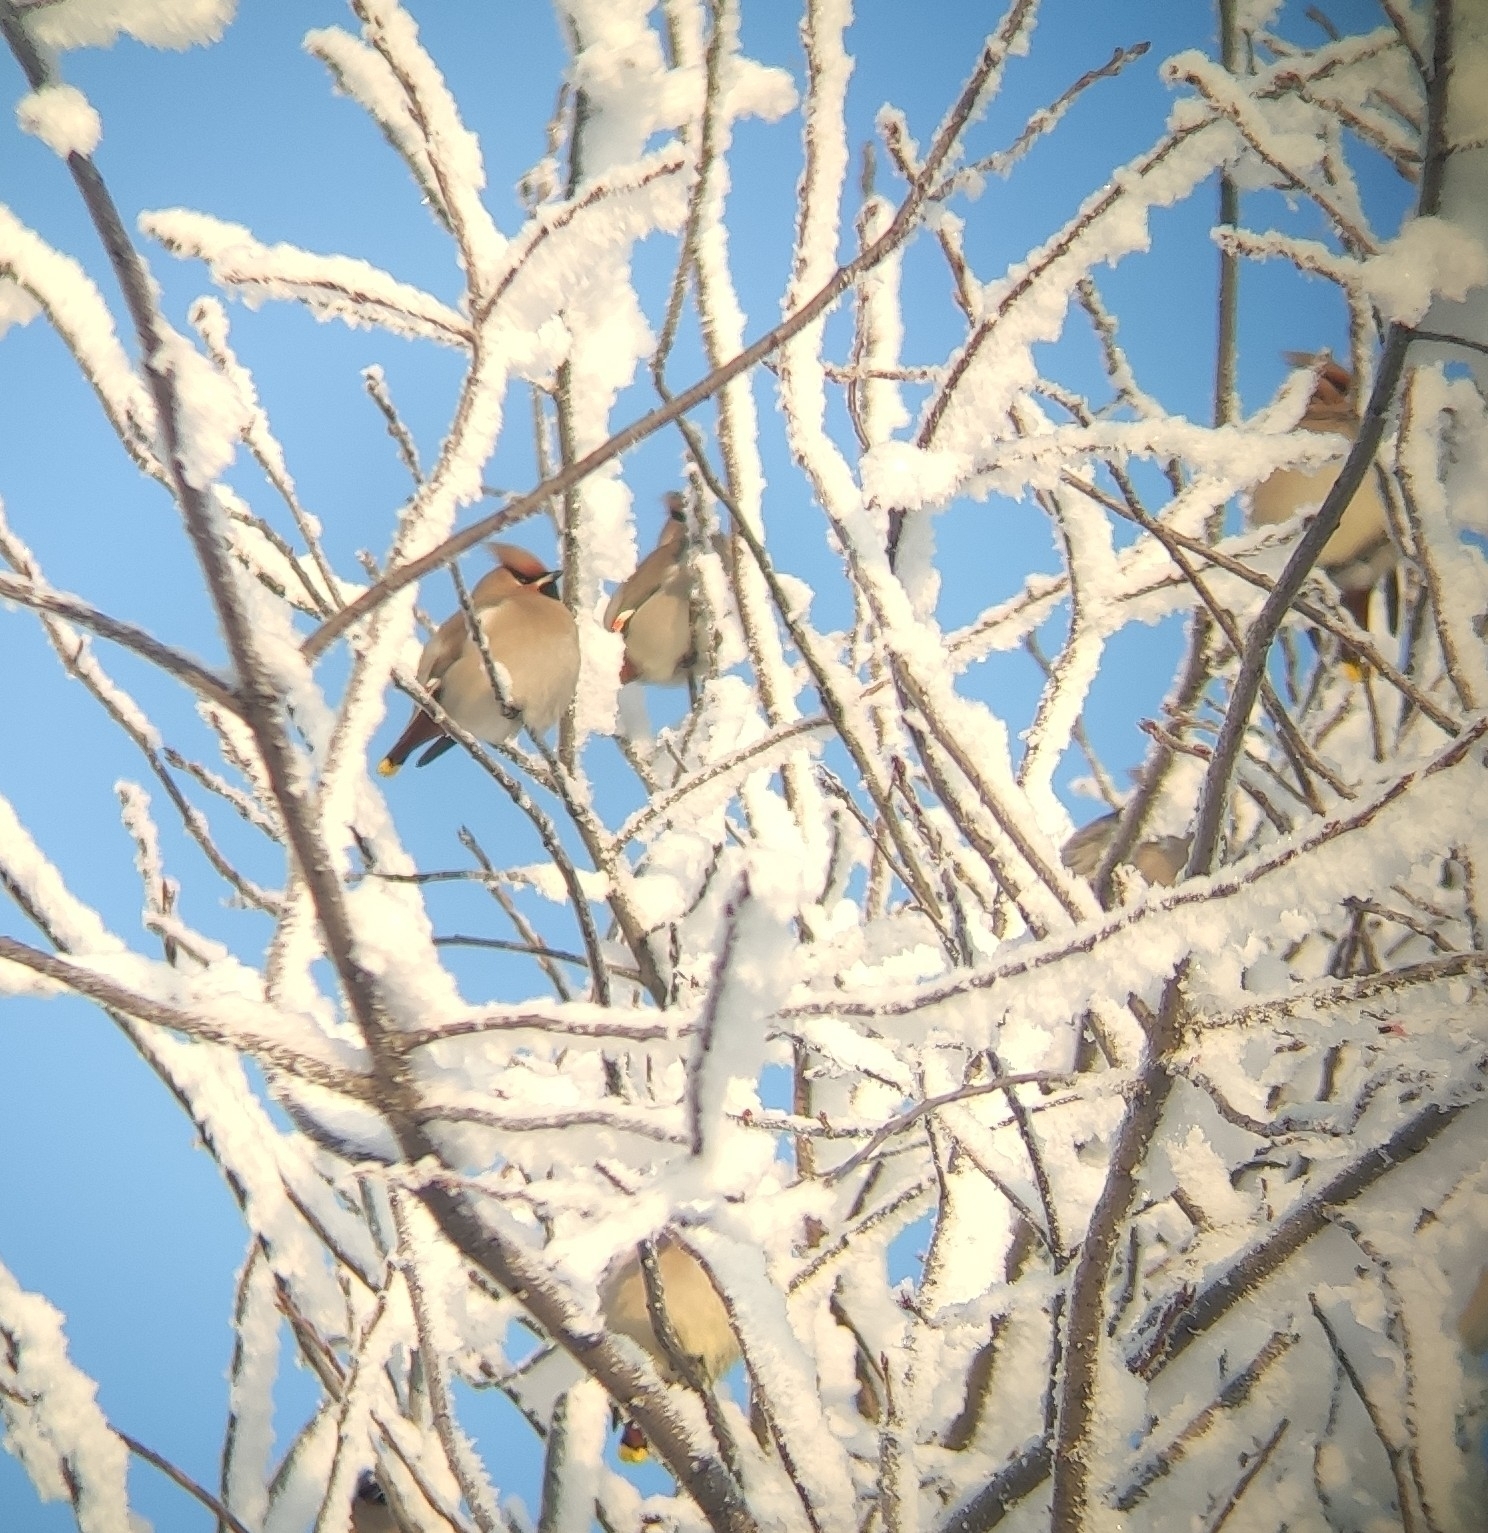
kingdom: Animalia
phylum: Chordata
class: Aves
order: Passeriformes
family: Bombycillidae
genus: Bombycilla
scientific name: Bombycilla garrulus
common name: Bohemian waxwing
